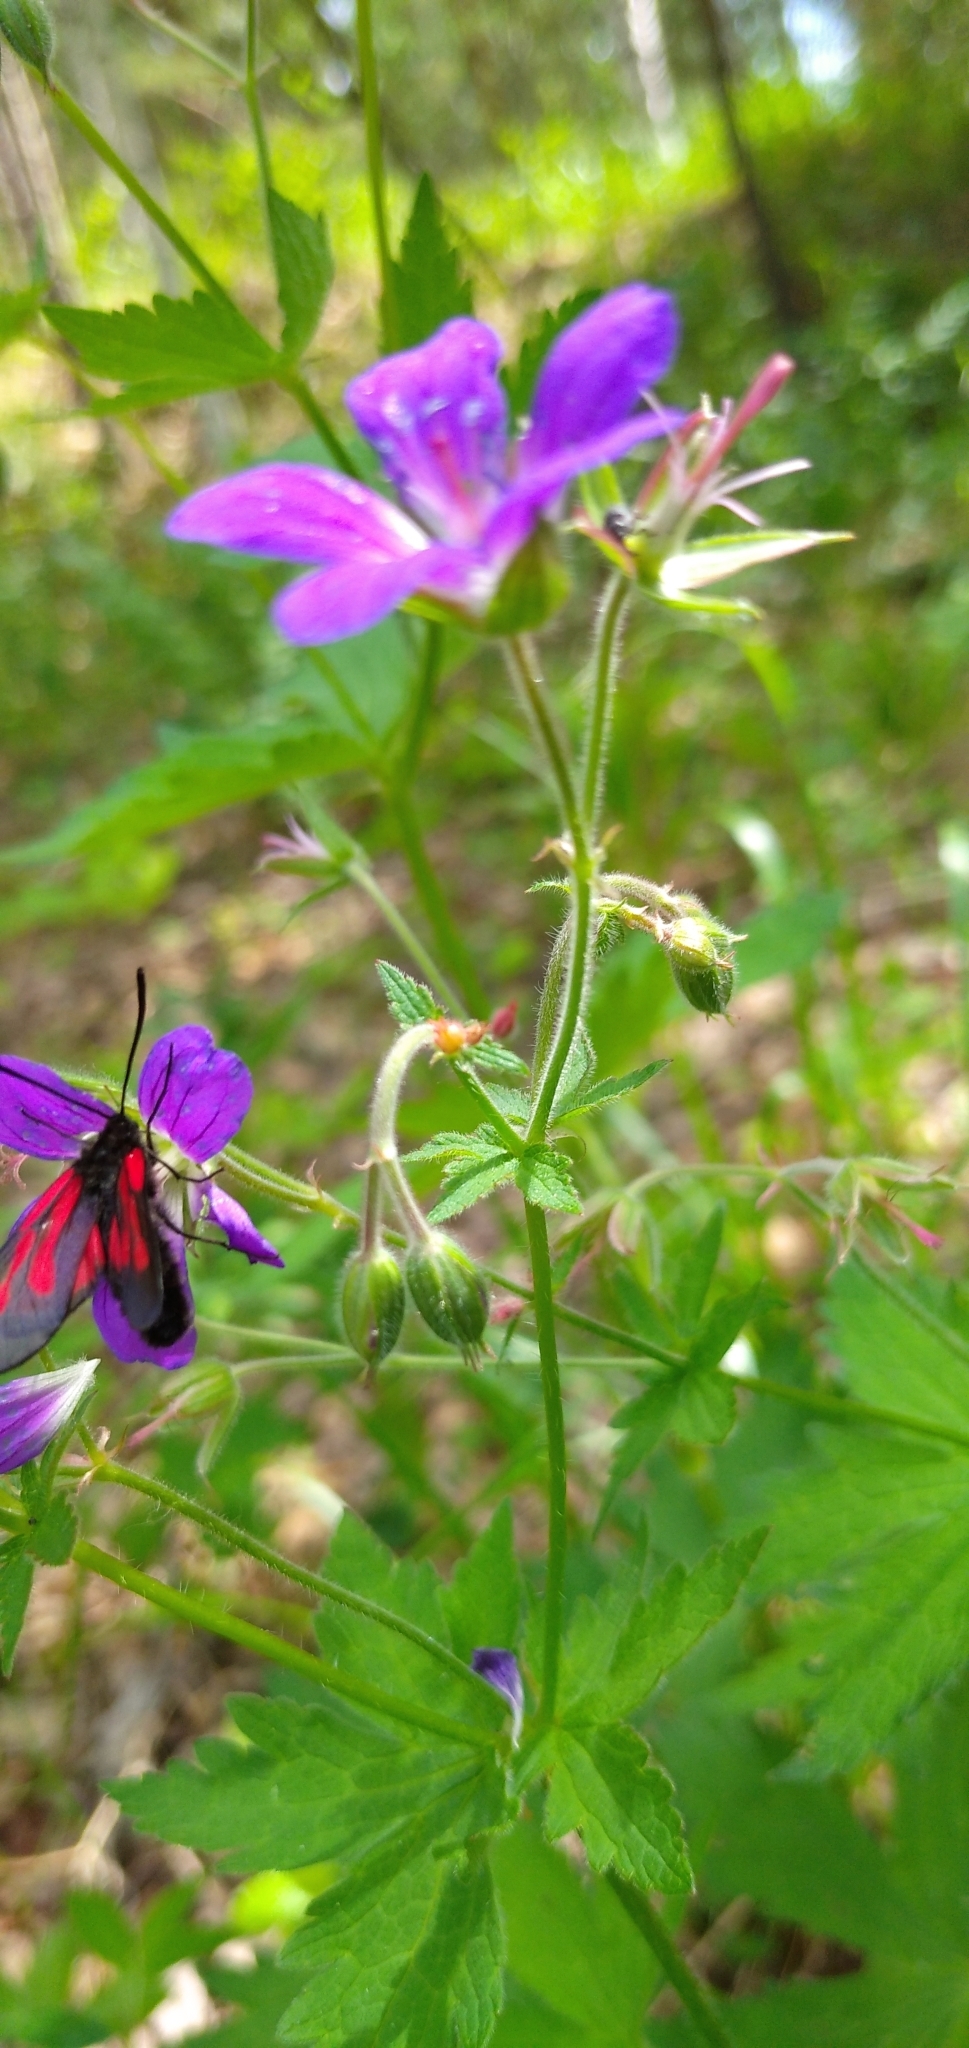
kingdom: Animalia
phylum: Arthropoda
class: Insecta
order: Lepidoptera
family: Zygaenidae
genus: Zygaena
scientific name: Zygaena osterodensis
